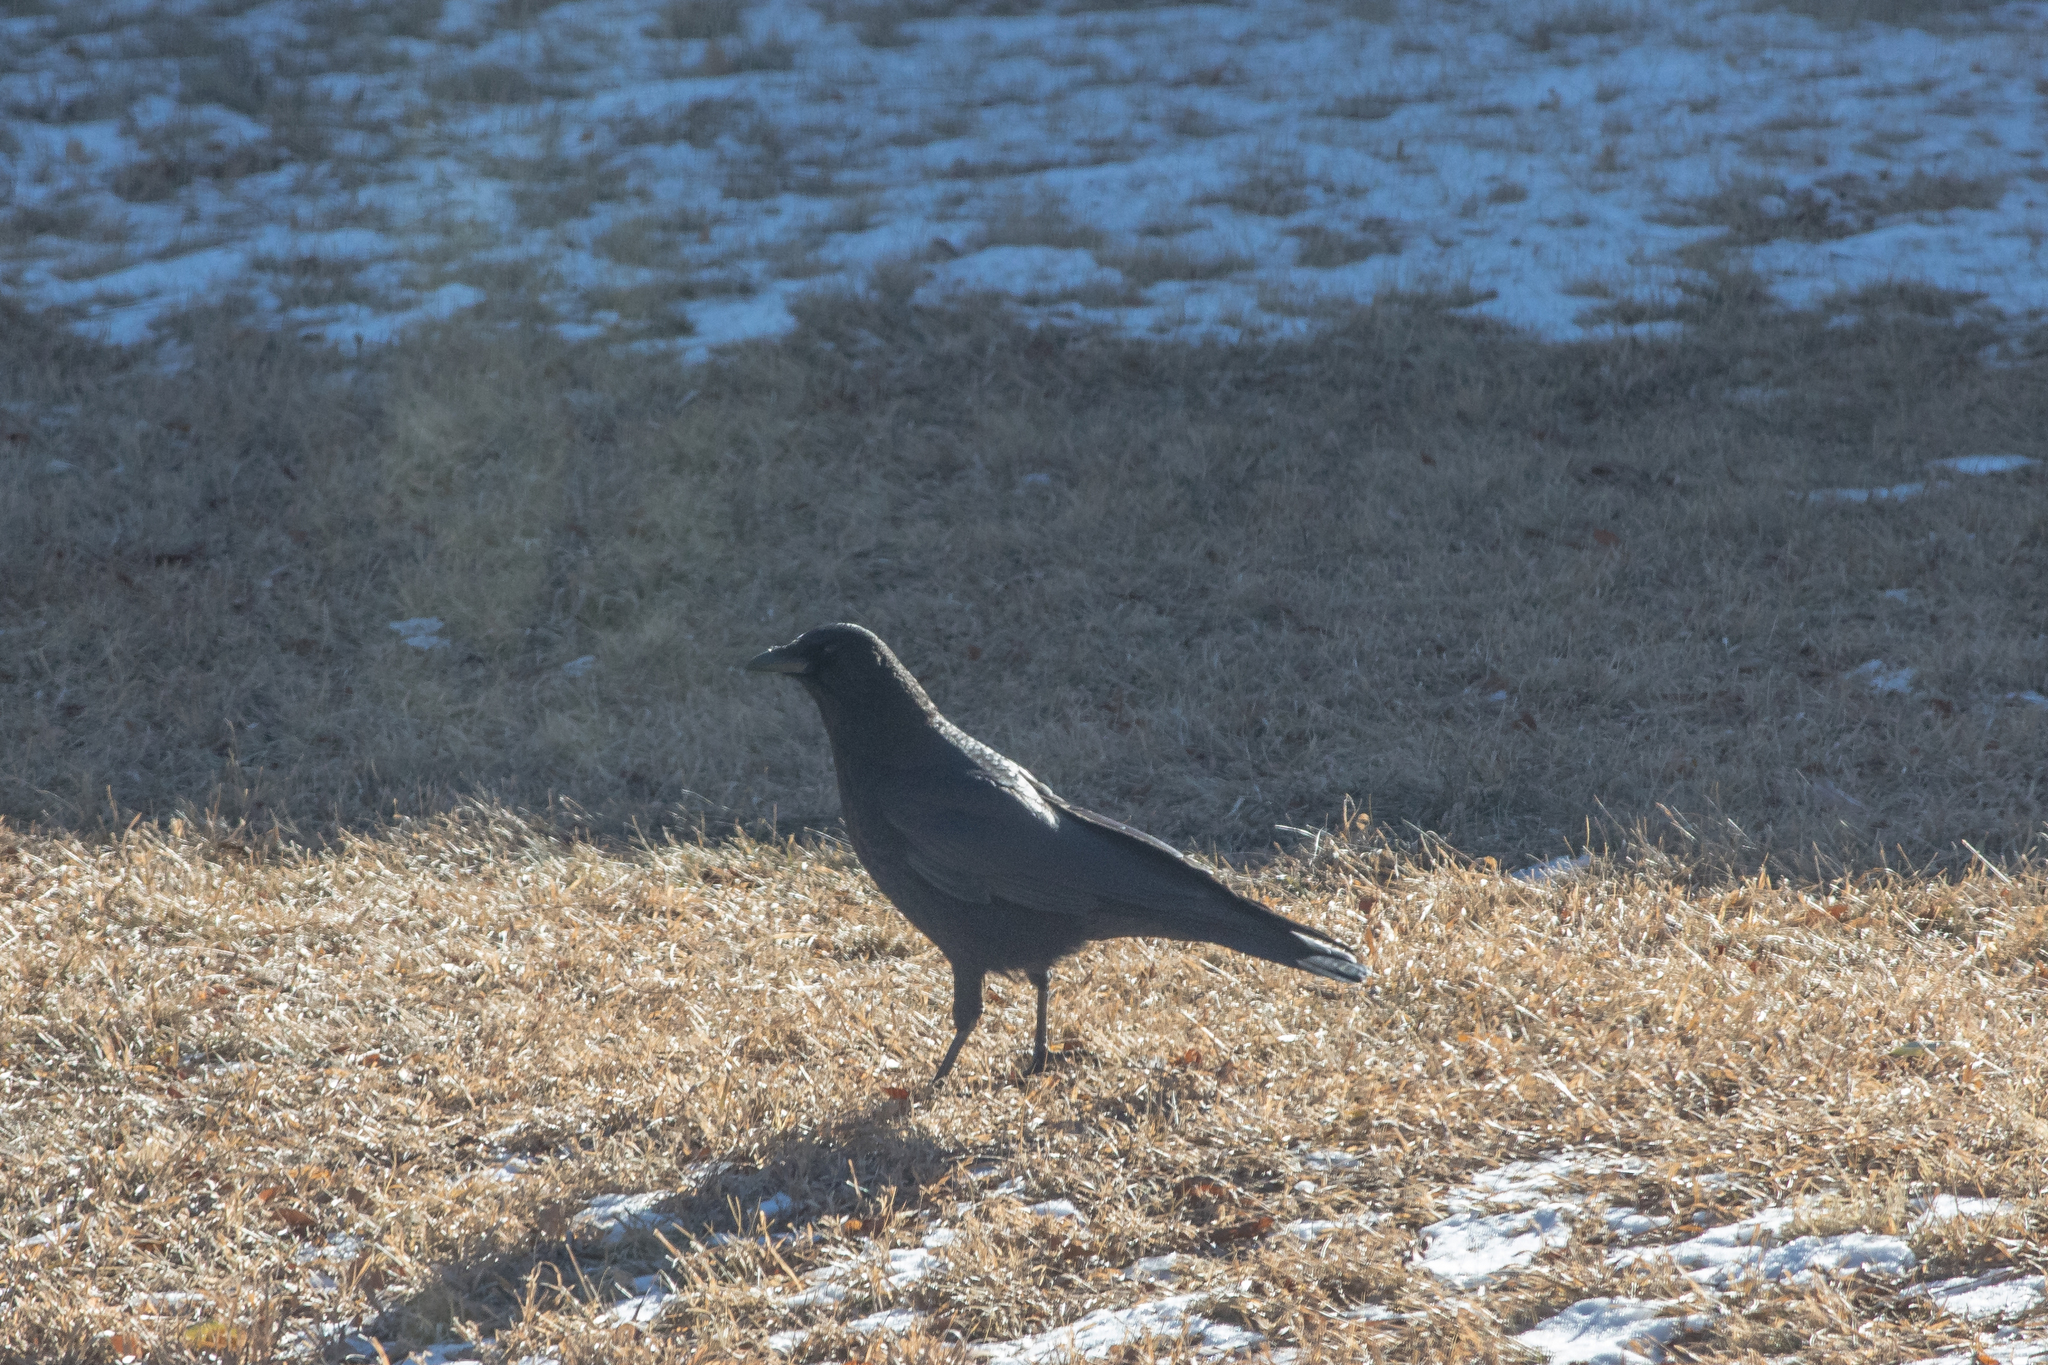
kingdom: Animalia
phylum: Chordata
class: Aves
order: Passeriformes
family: Corvidae
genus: Corvus
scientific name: Corvus brachyrhynchos
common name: American crow
